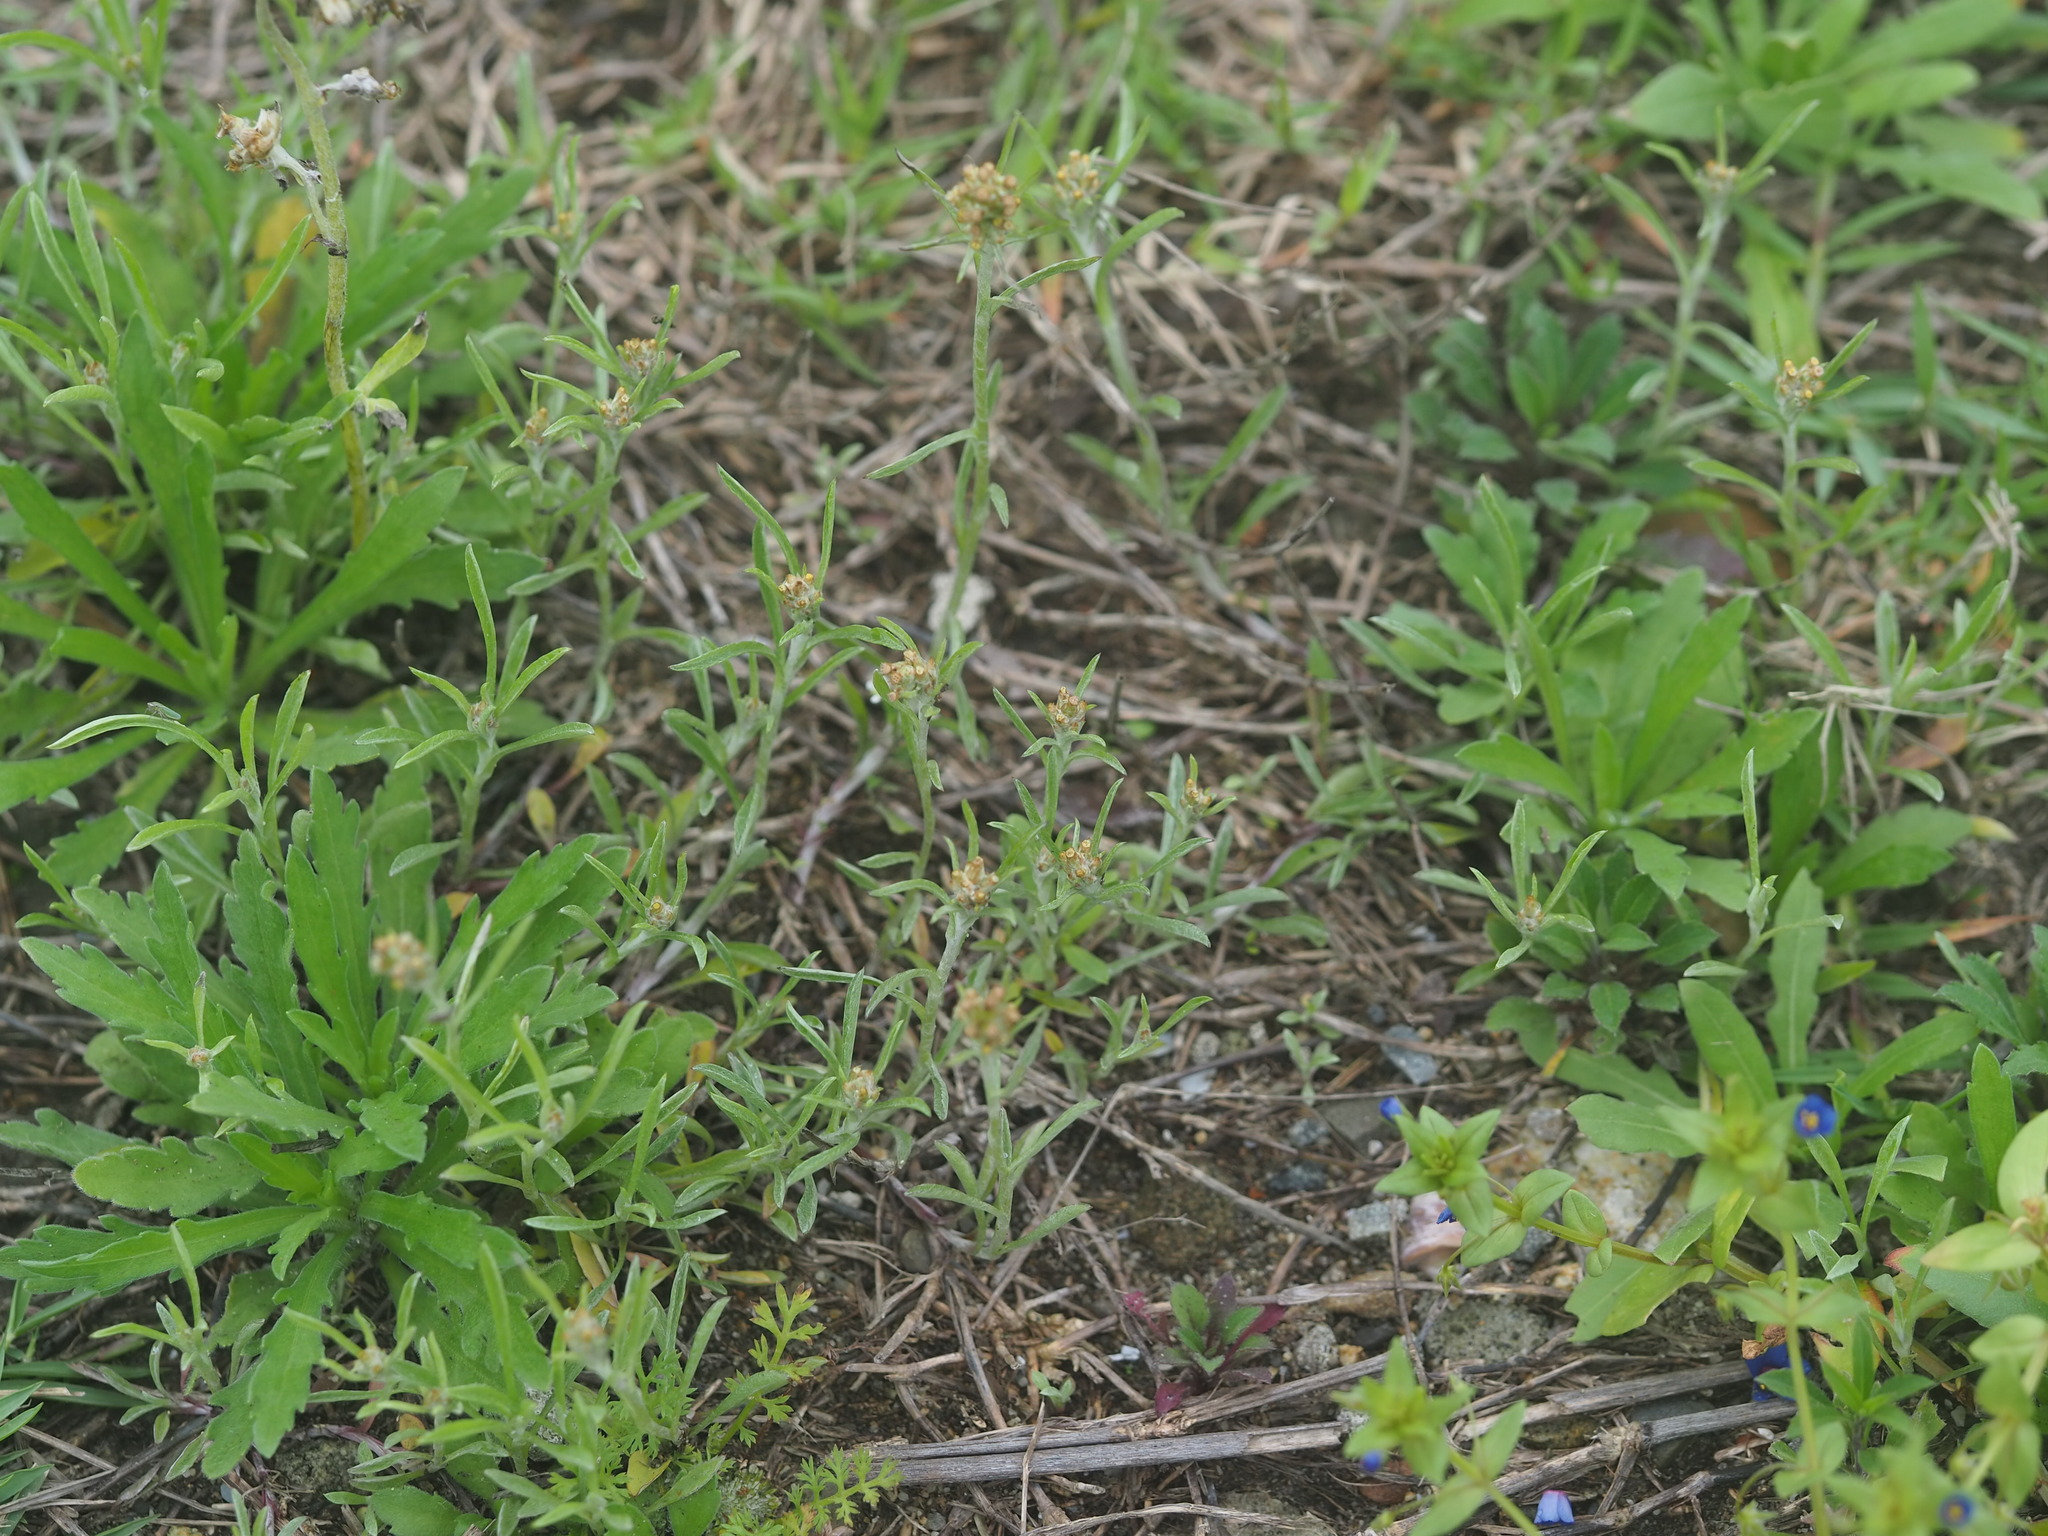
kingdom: Plantae
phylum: Tracheophyta
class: Magnoliopsida
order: Asterales
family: Asteraceae
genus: Gamochaeta
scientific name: Gamochaeta calviceps
